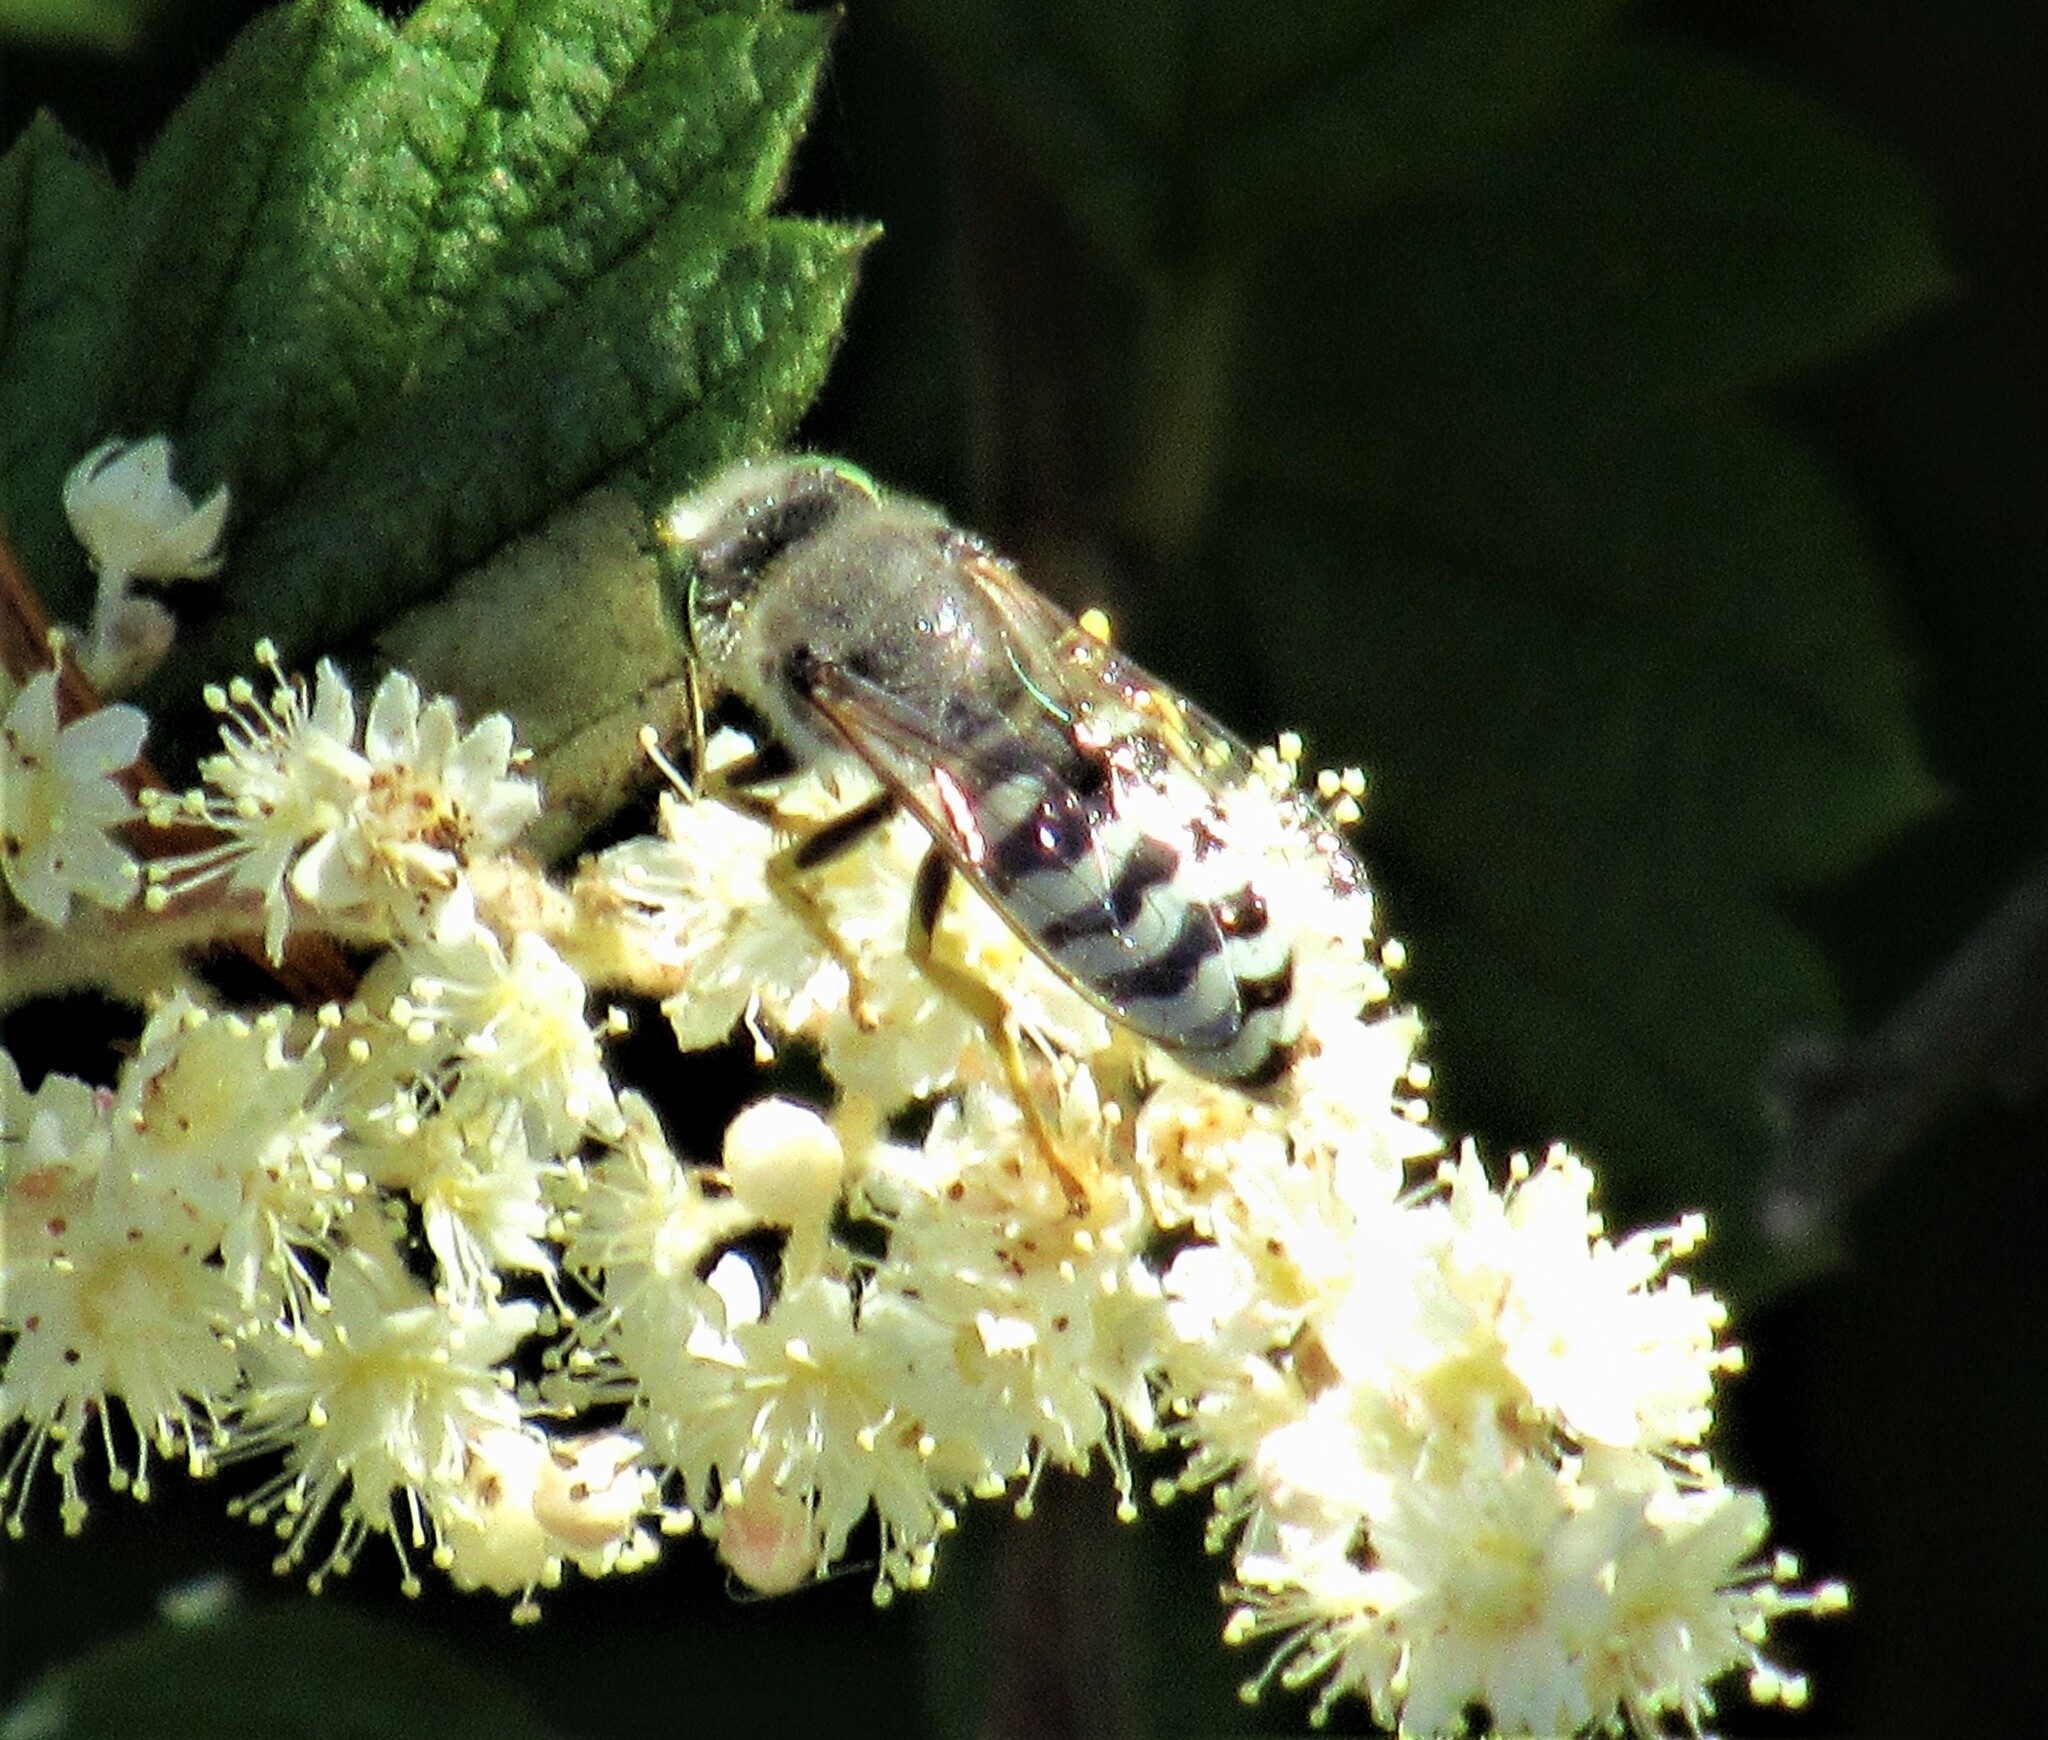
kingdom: Animalia
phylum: Arthropoda
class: Insecta
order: Hymenoptera
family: Crabronidae
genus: Bembix
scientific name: Bembix americana
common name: American sand wasp
